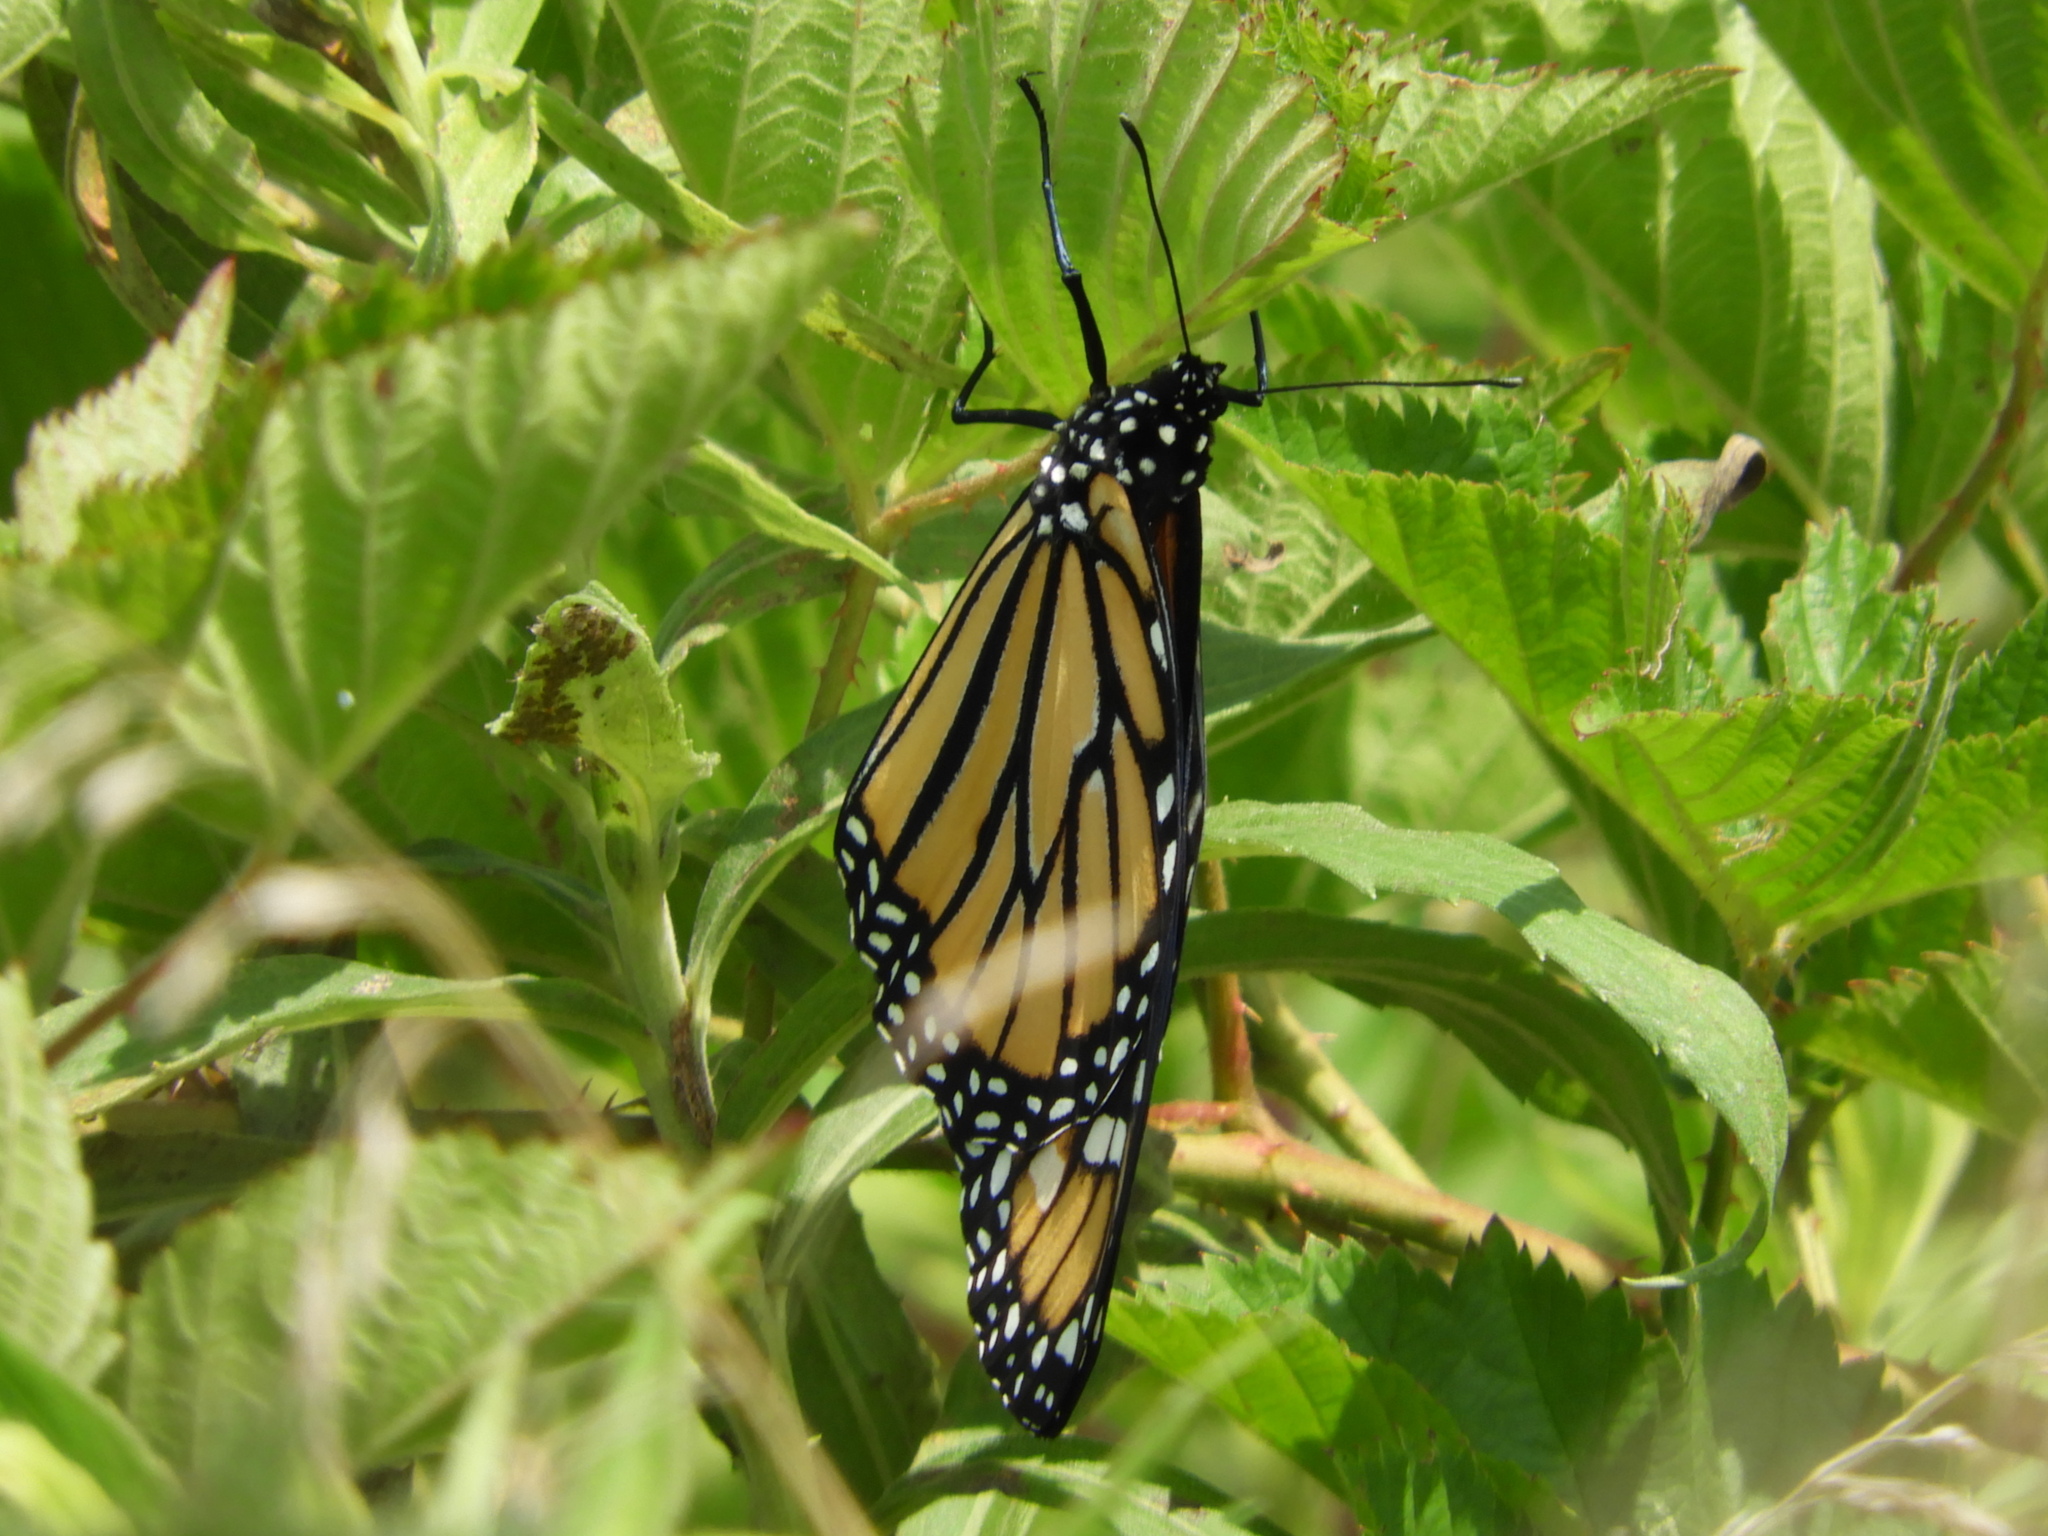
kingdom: Animalia
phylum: Arthropoda
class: Insecta
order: Lepidoptera
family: Nymphalidae
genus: Danaus
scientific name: Danaus plexippus
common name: Monarch
